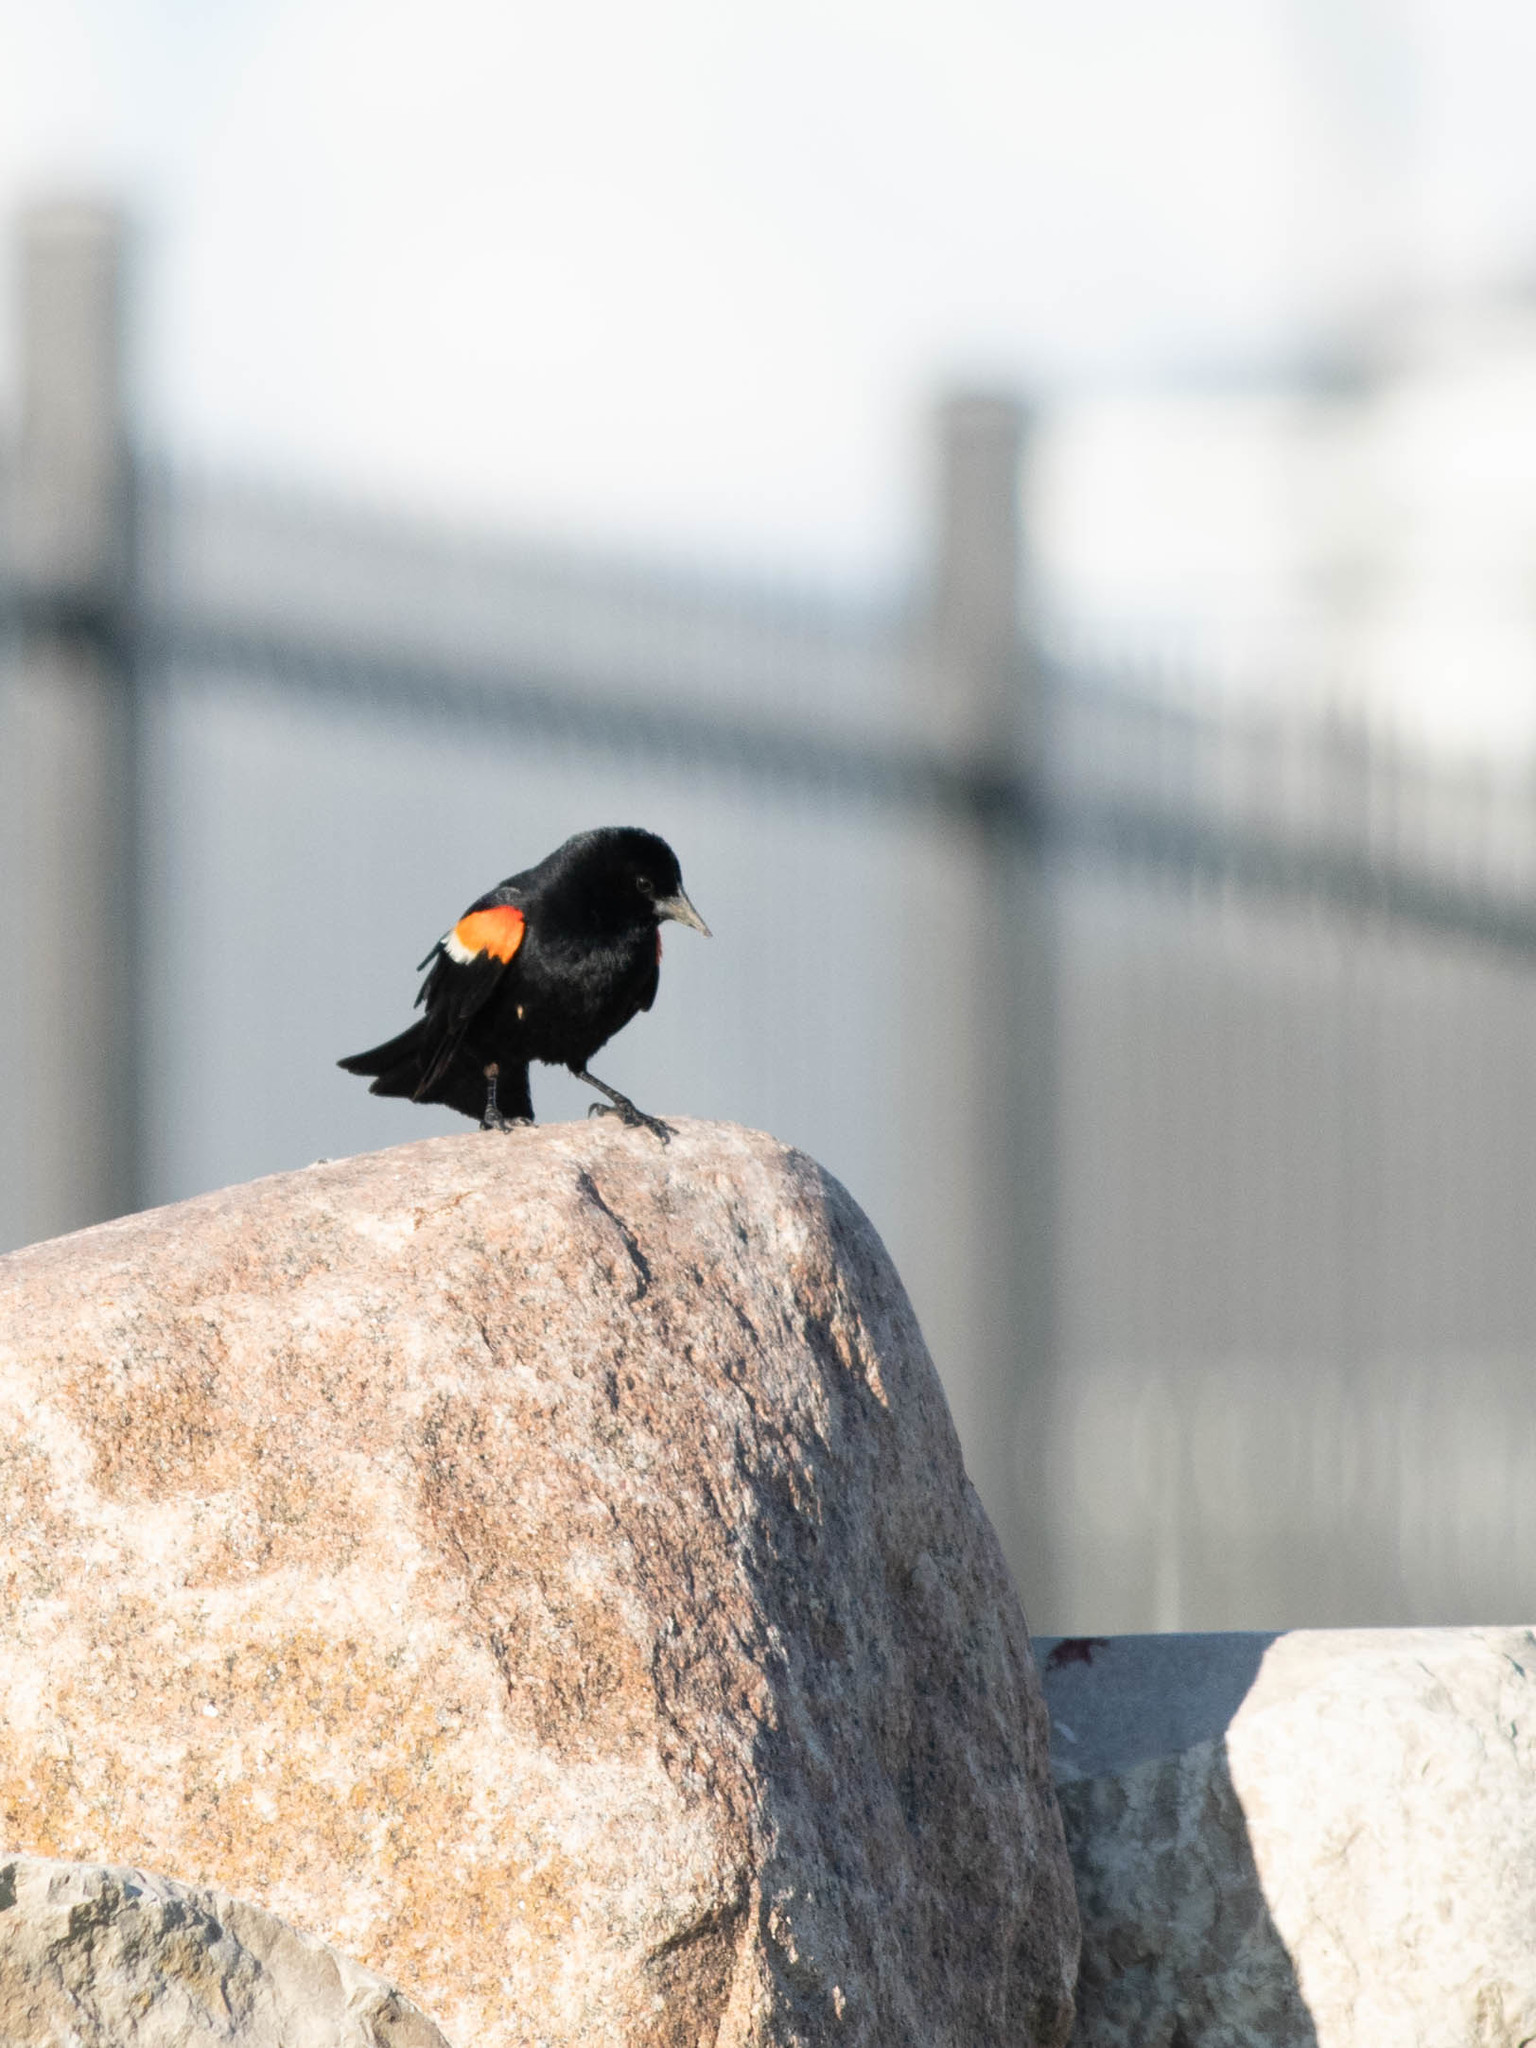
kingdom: Animalia
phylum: Chordata
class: Aves
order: Passeriformes
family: Icteridae
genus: Agelaius
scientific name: Agelaius phoeniceus
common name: Red-winged blackbird
